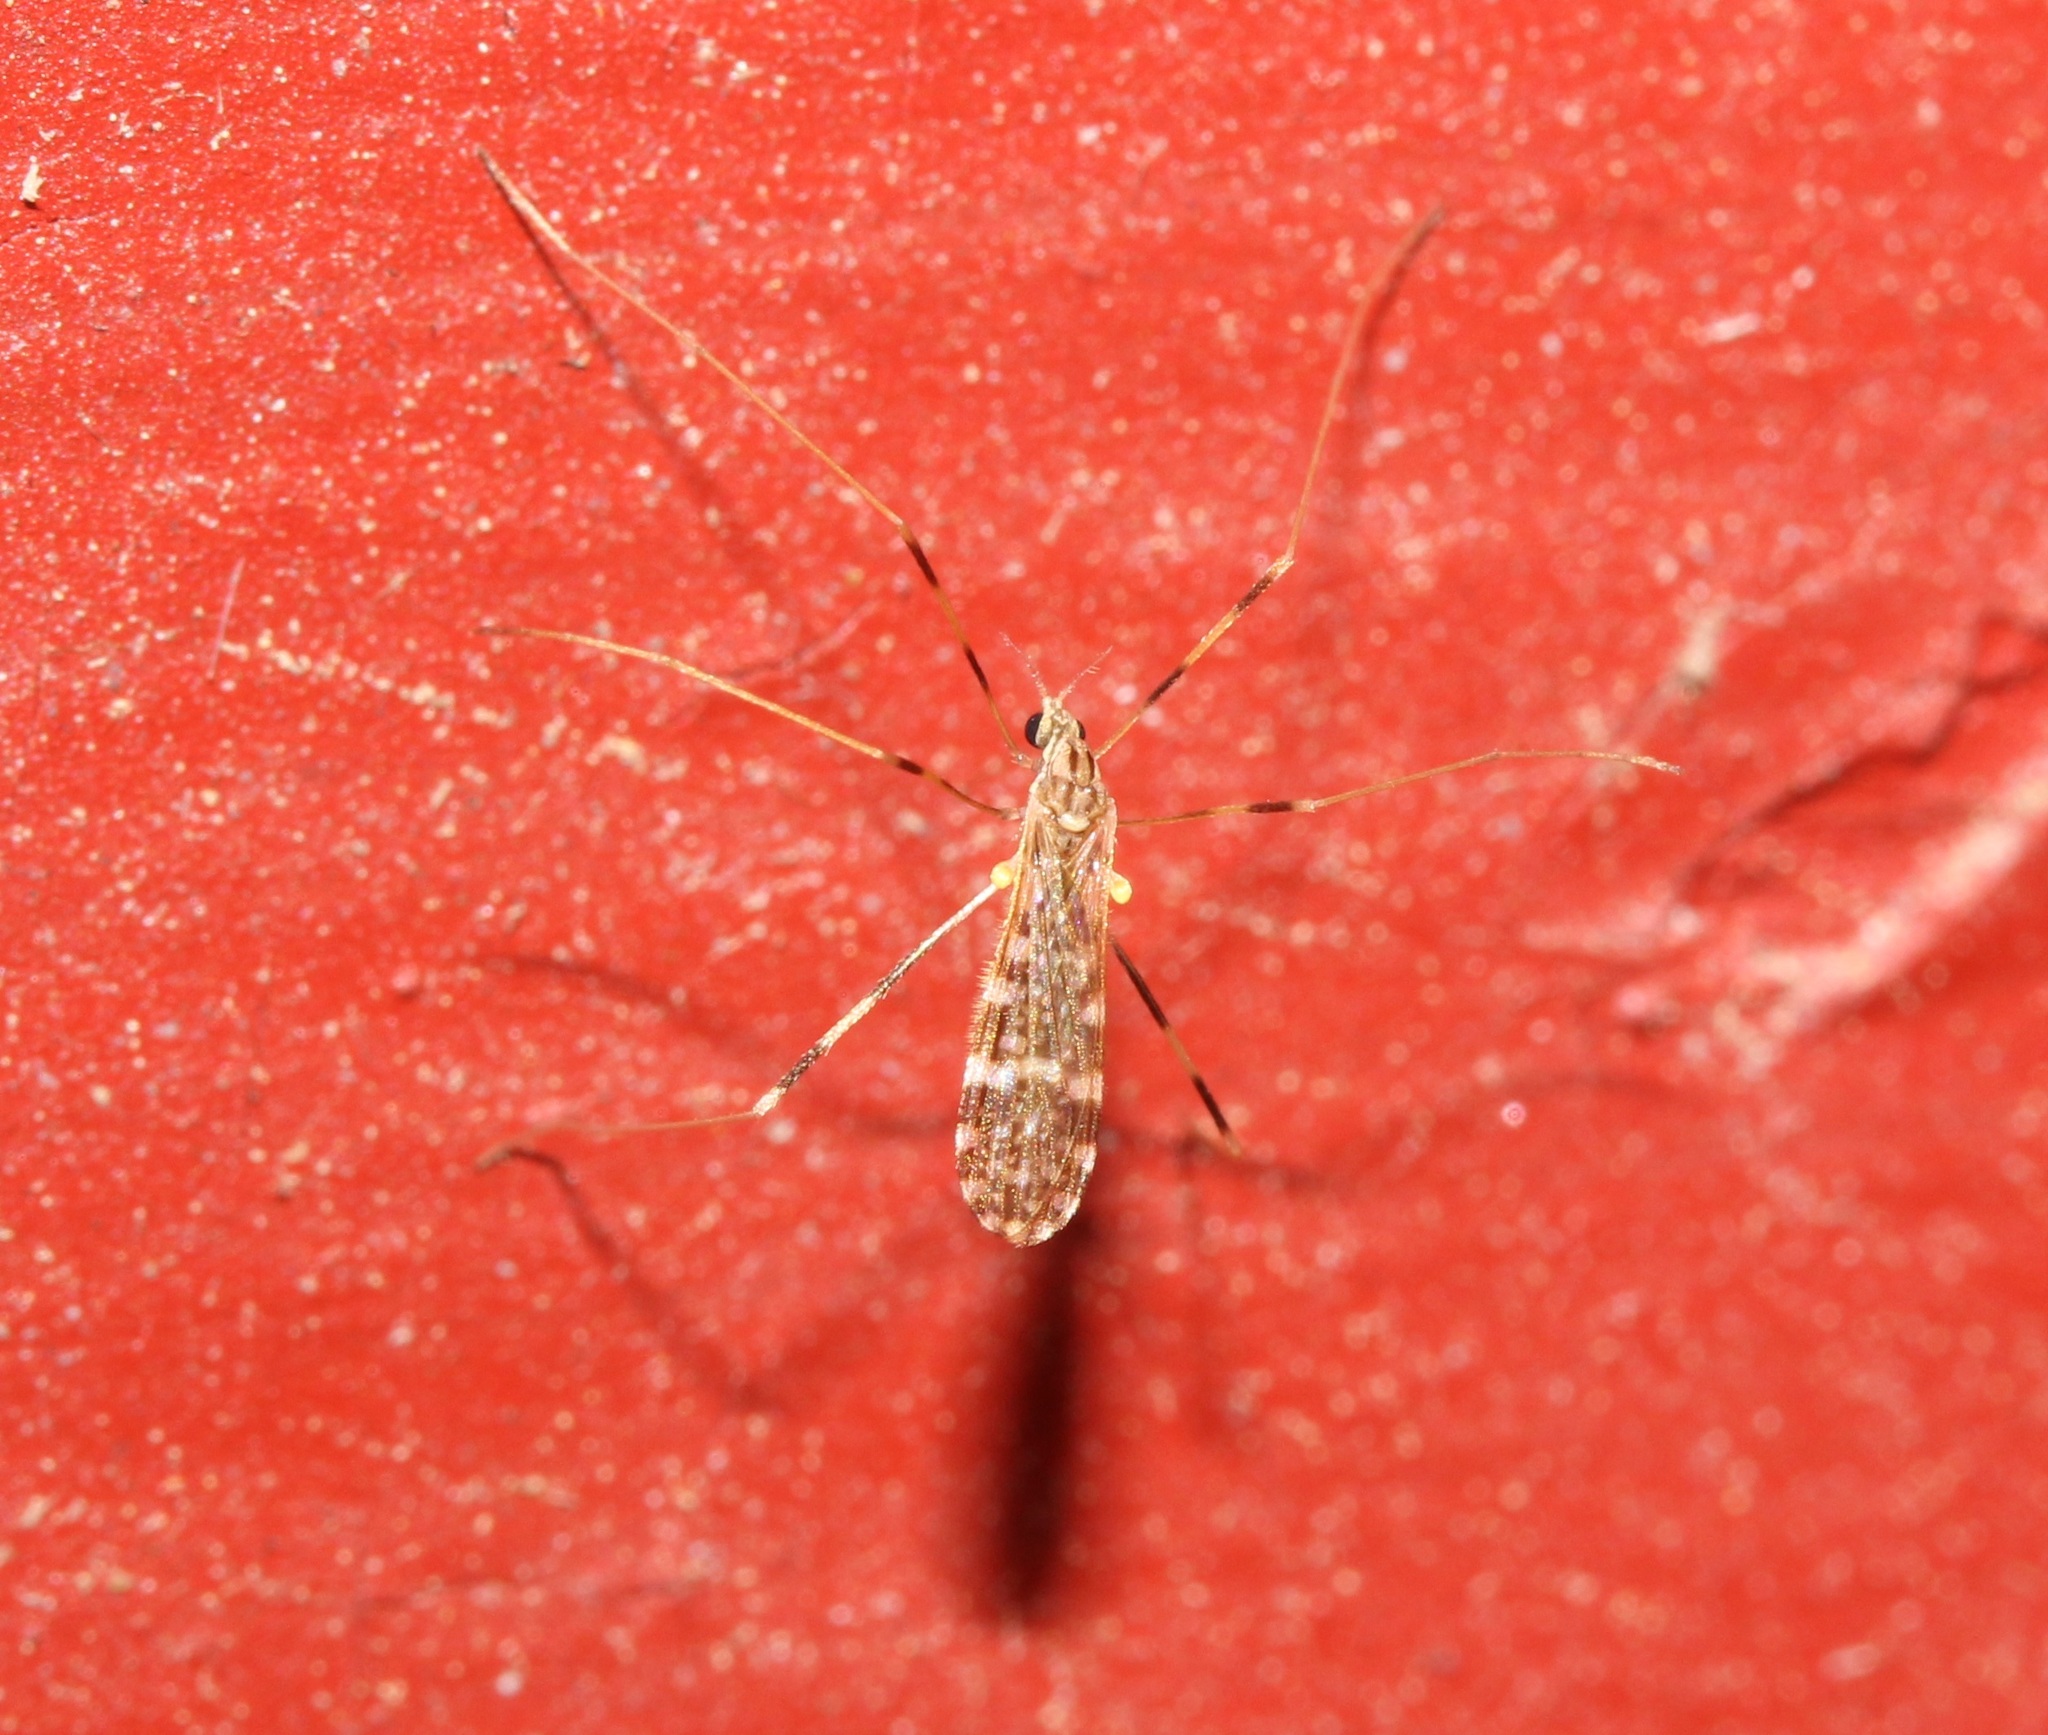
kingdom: Animalia
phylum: Arthropoda
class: Insecta
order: Diptera
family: Limoniidae
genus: Erioptera
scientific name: Erioptera caliptera
